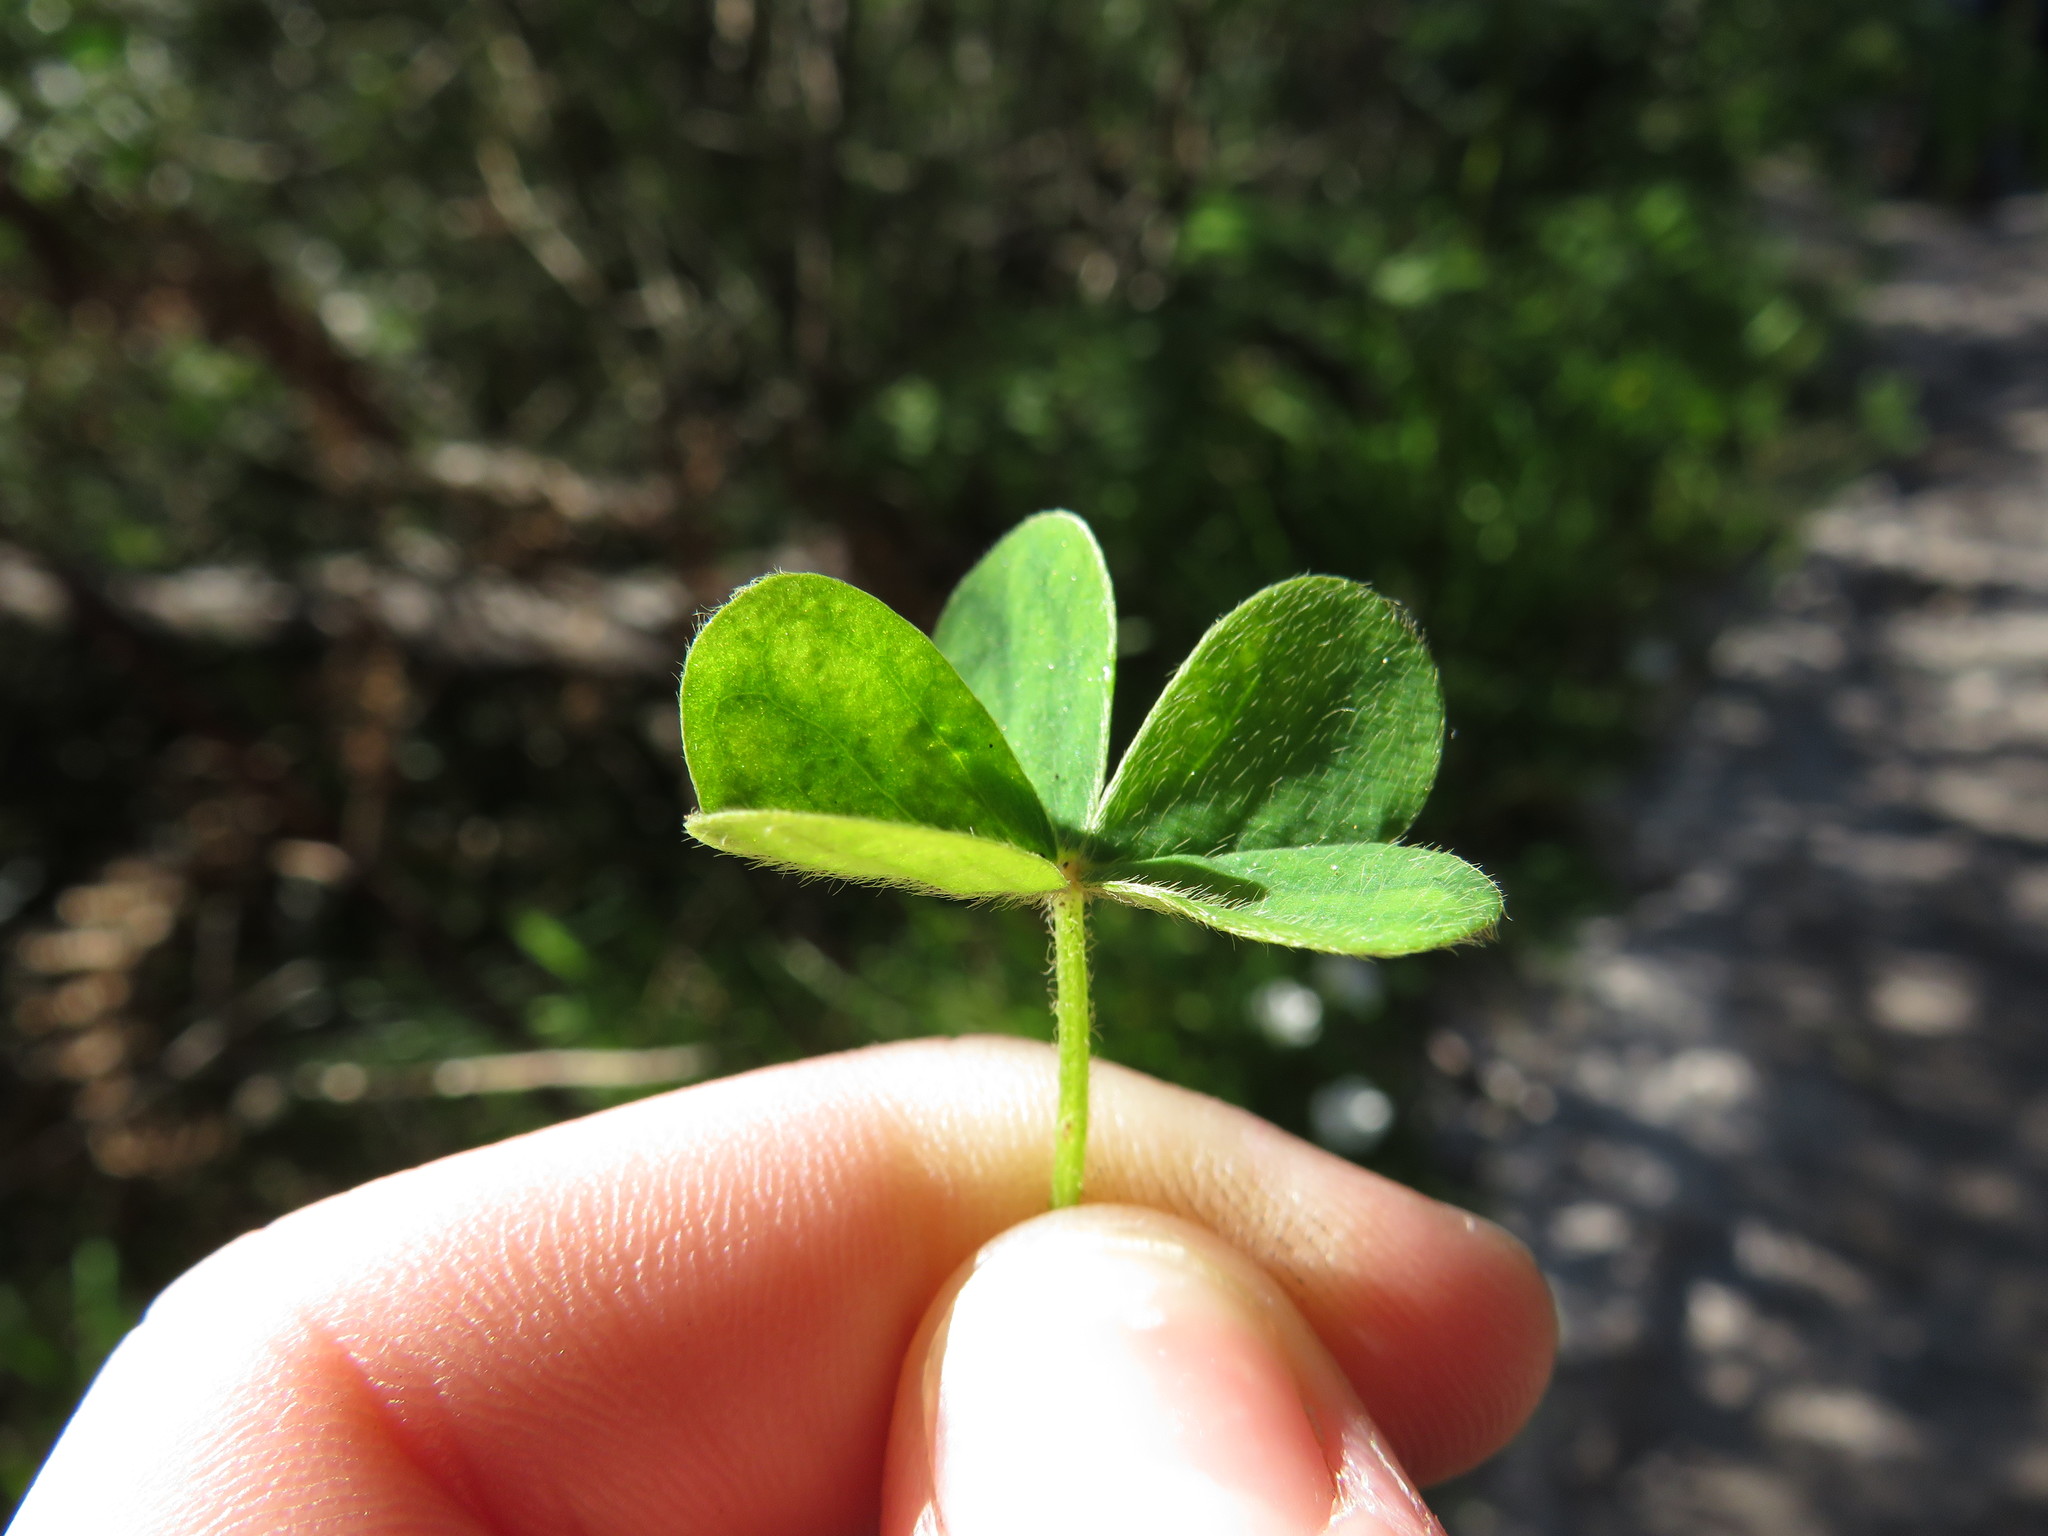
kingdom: Plantae
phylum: Tracheophyta
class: Magnoliopsida
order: Oxalidales
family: Oxalidaceae
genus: Oxalis
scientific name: Oxalis lanata
